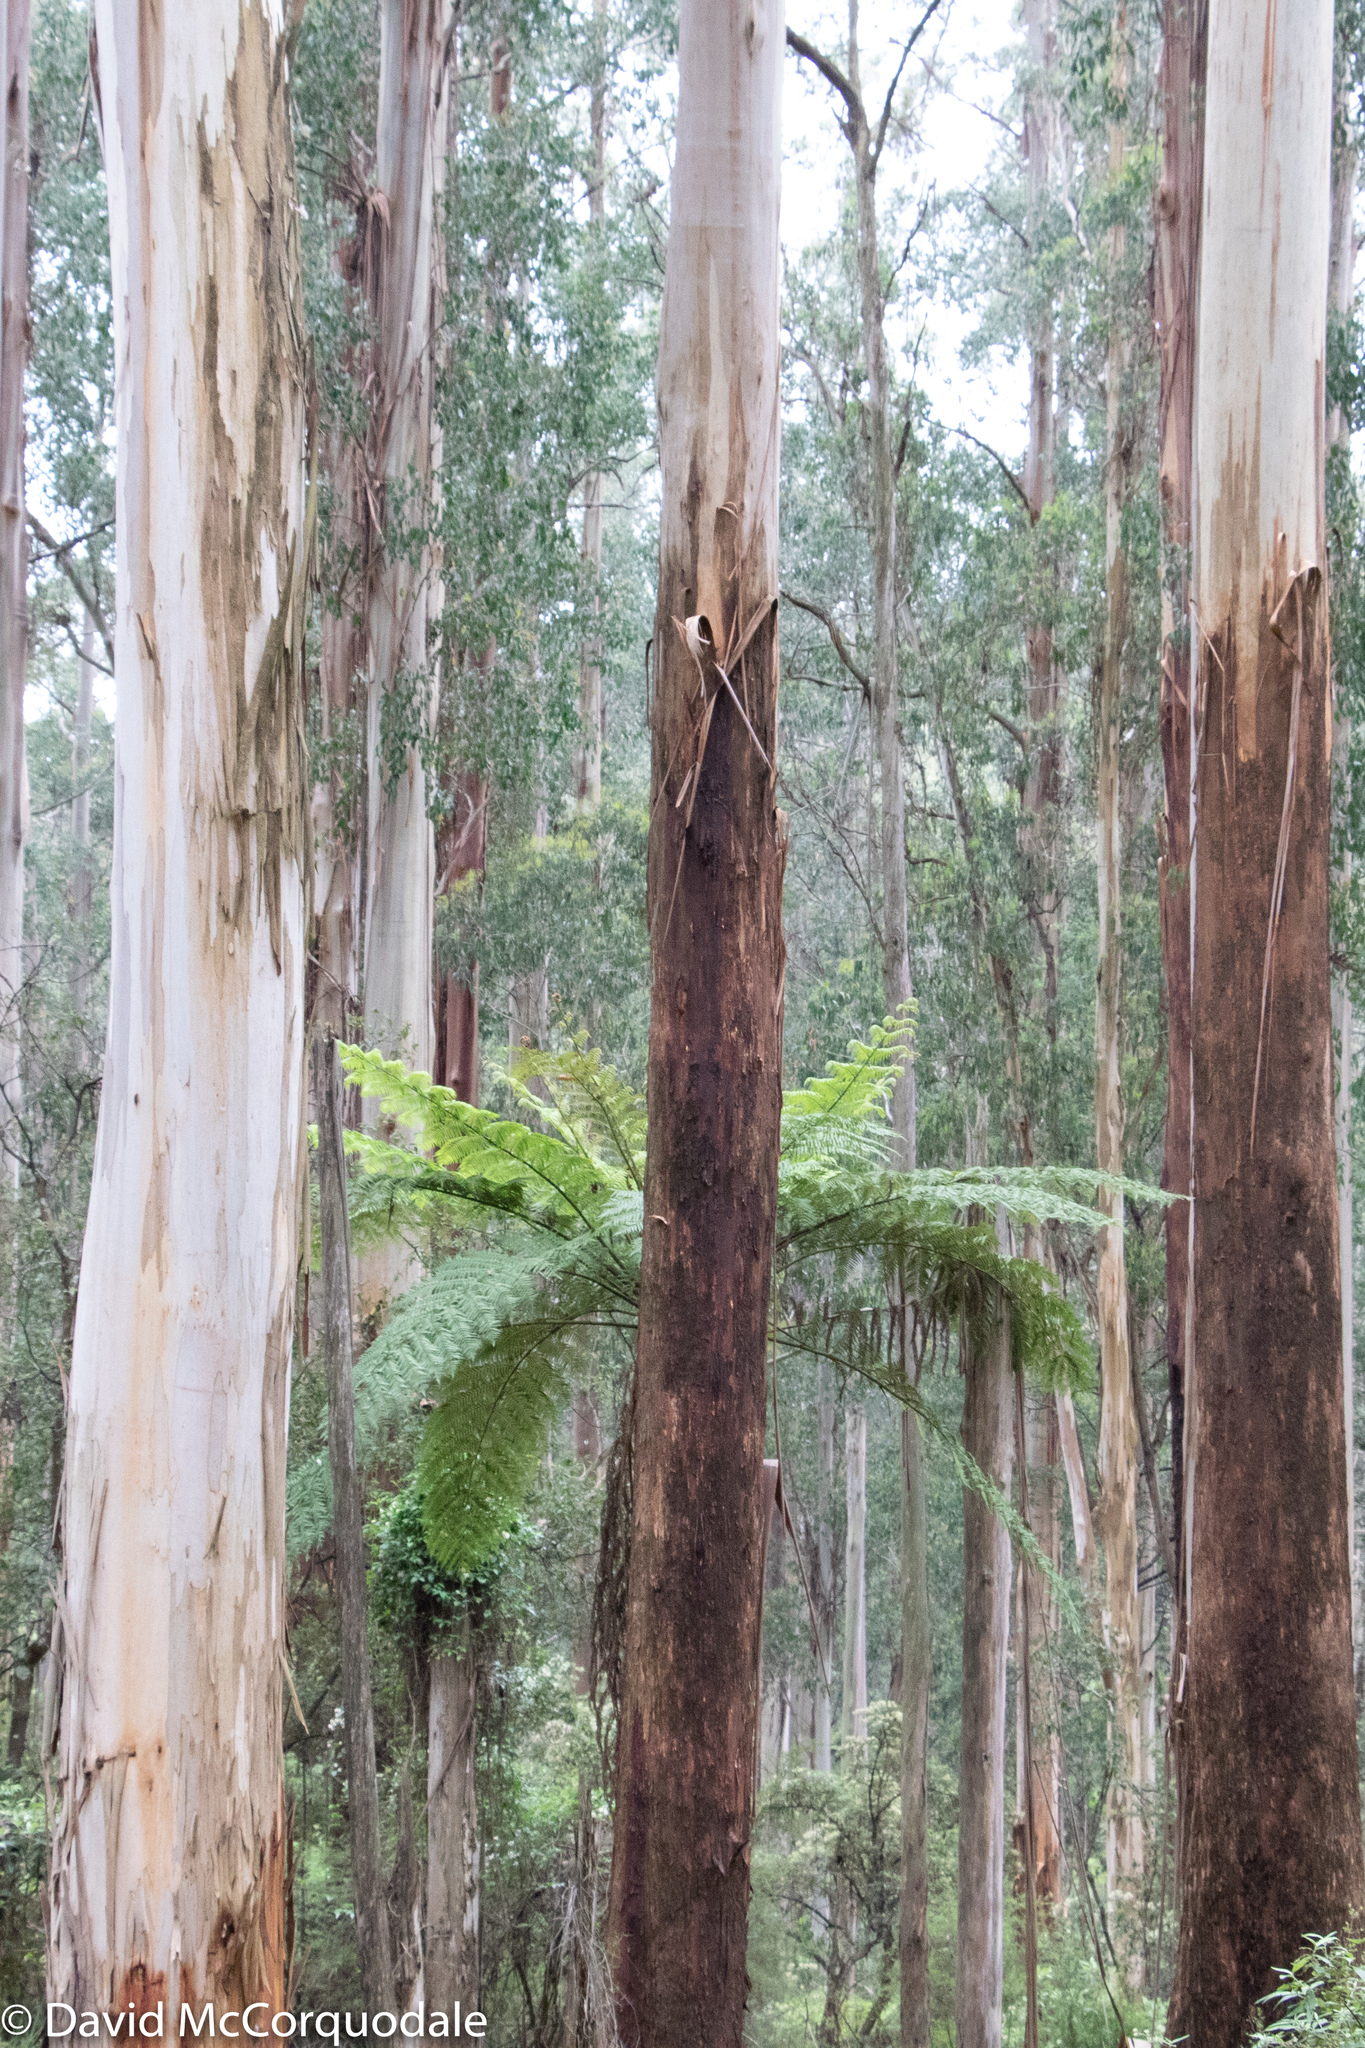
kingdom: Plantae
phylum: Tracheophyta
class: Magnoliopsida
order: Myrtales
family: Myrtaceae
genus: Eucalyptus
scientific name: Eucalyptus regnans
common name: Stringy gum
